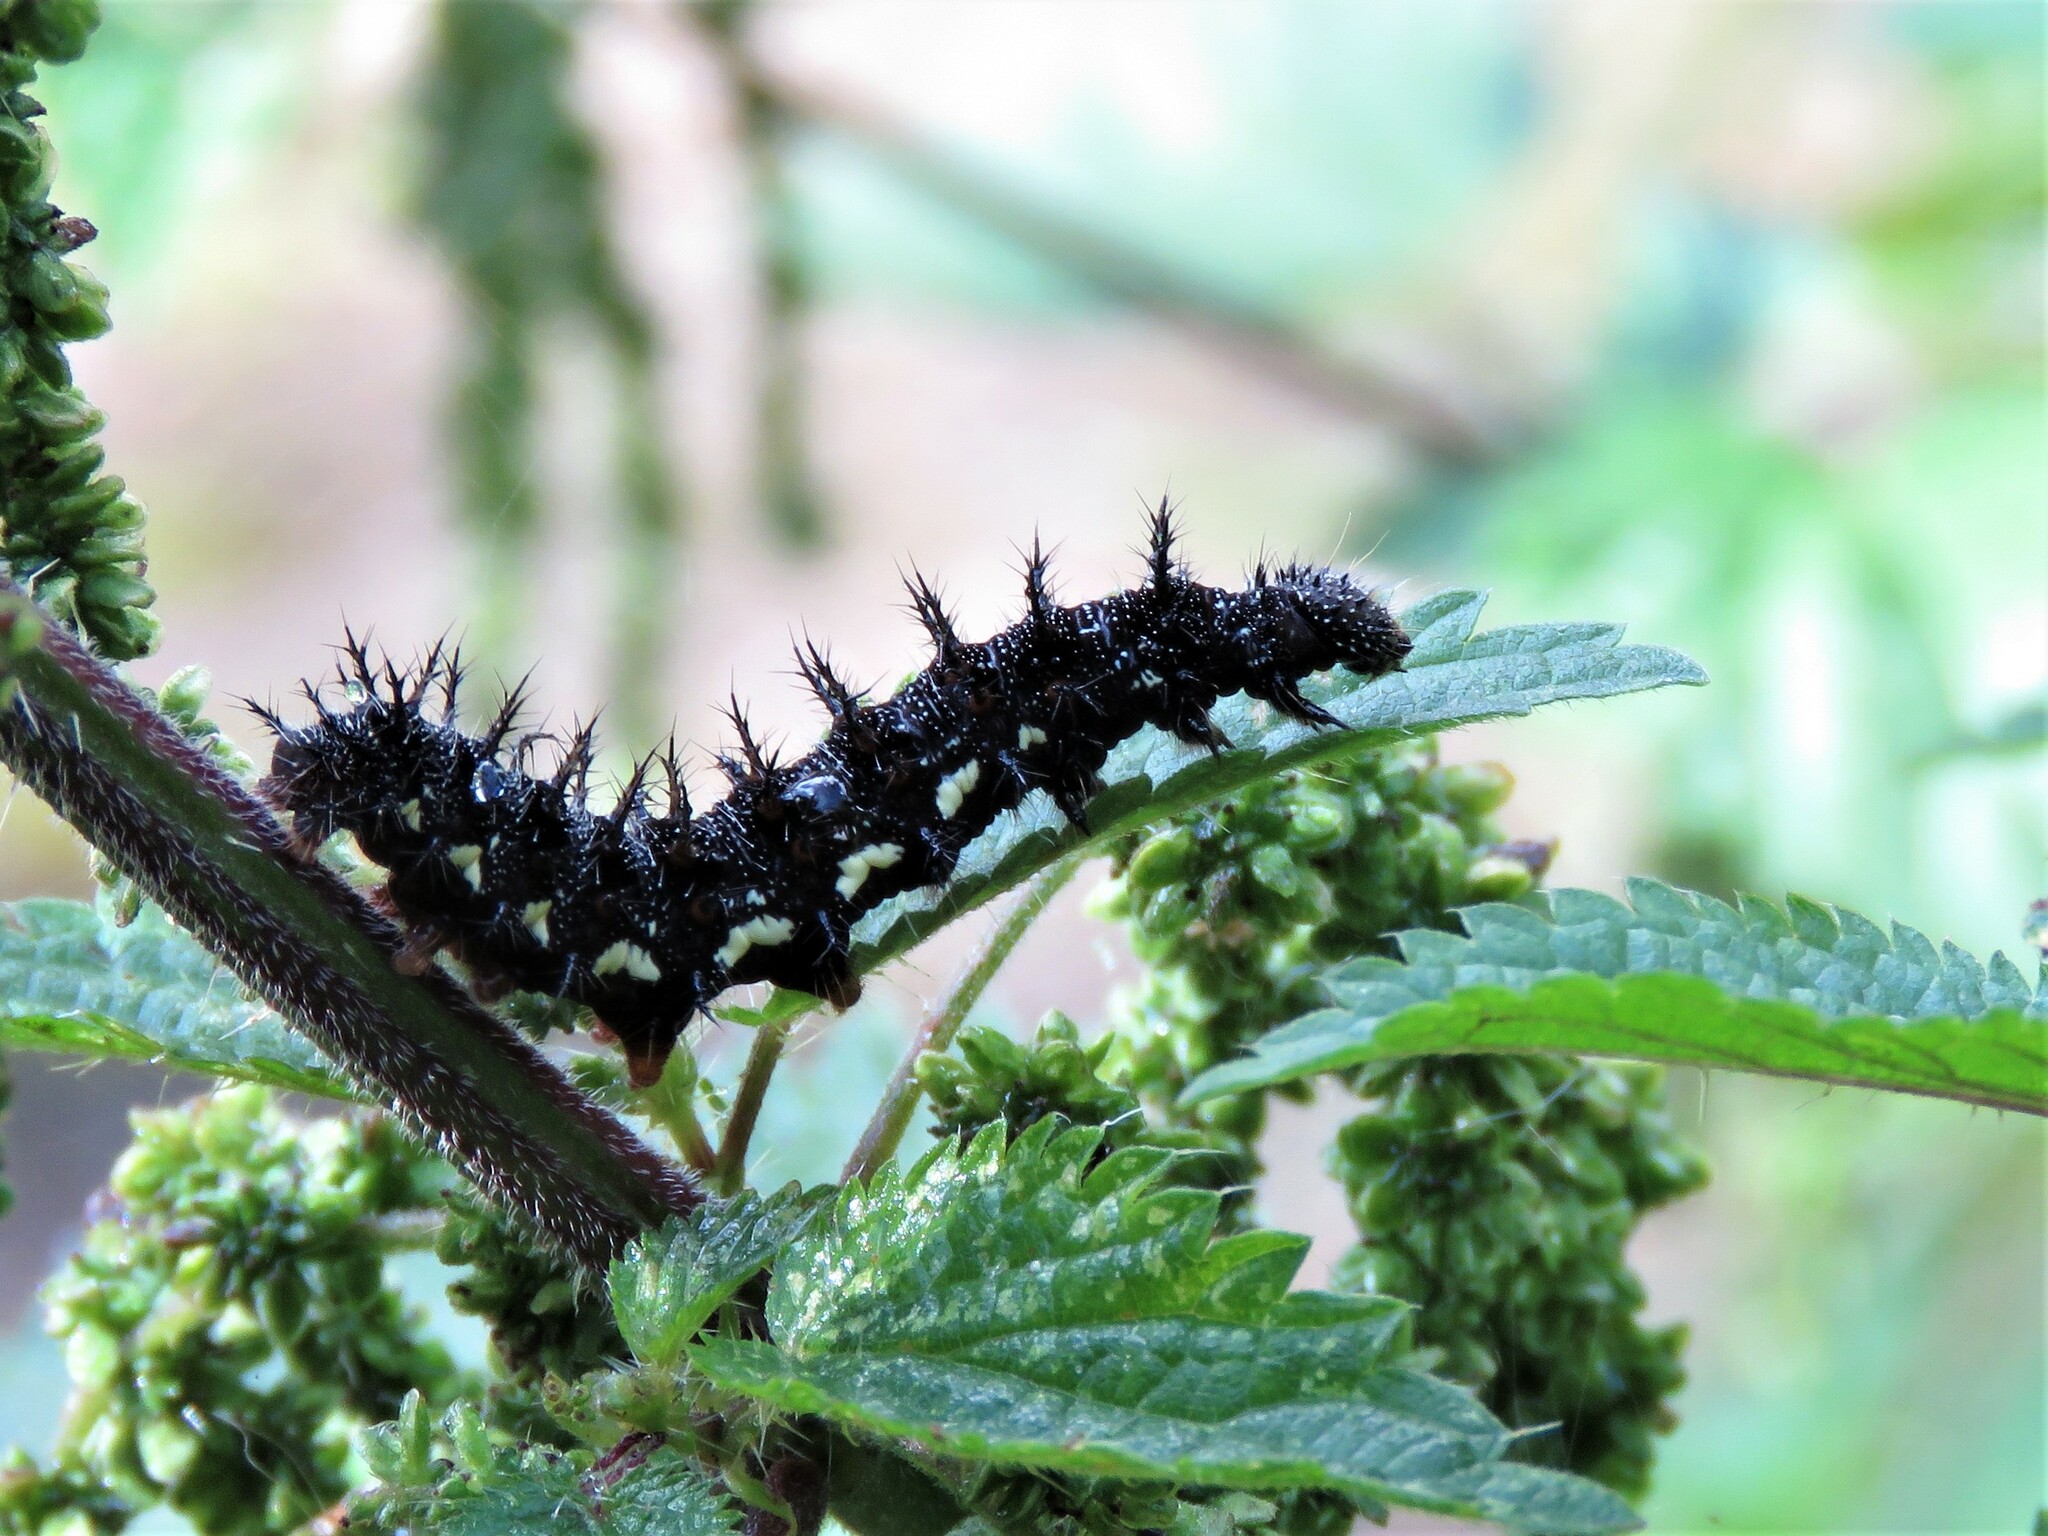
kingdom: Animalia
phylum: Arthropoda
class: Insecta
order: Lepidoptera
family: Nymphalidae
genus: Vanessa
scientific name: Vanessa atalanta
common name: Red admiral
